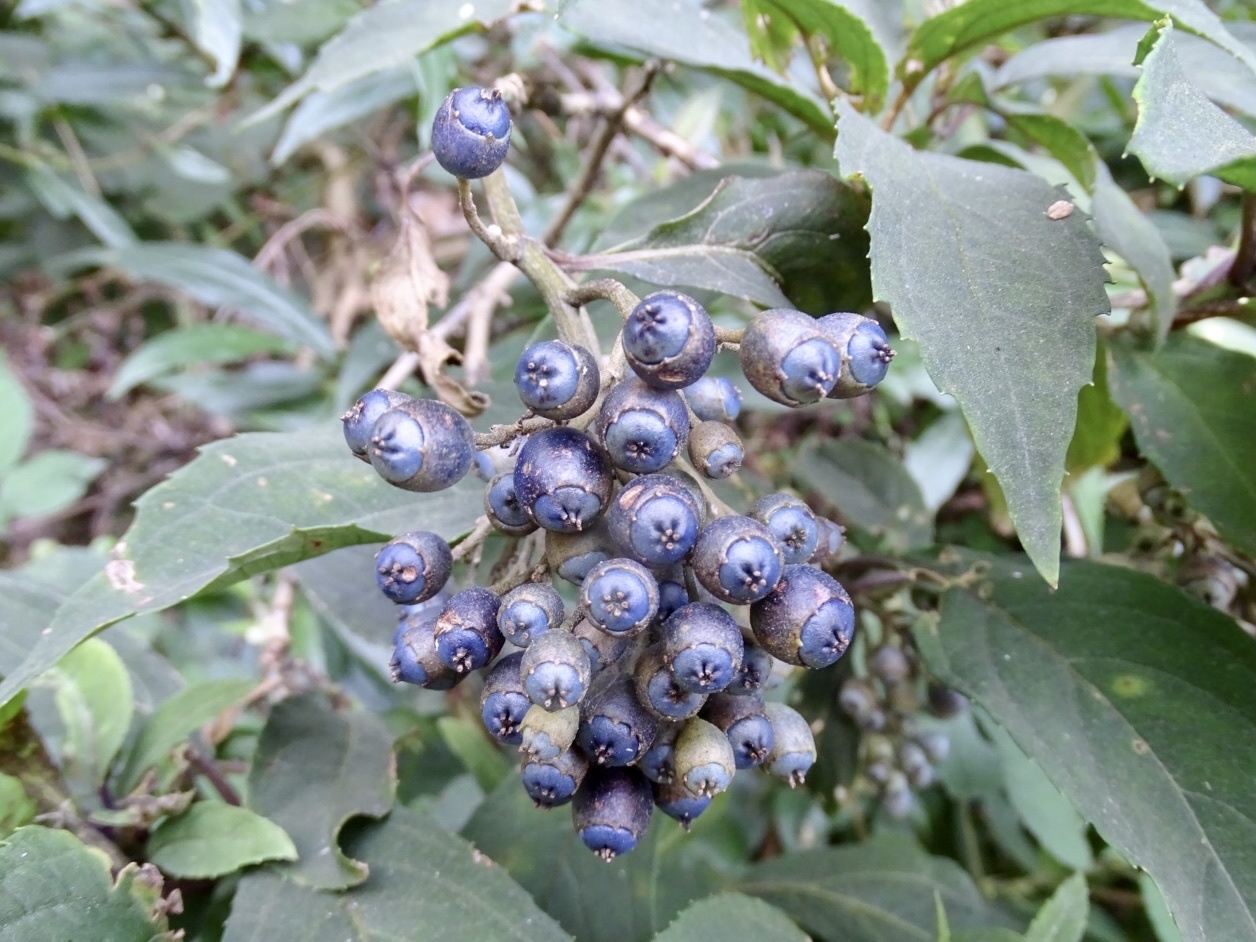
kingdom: Plantae
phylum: Tracheophyta
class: Magnoliopsida
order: Cornales
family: Hydrangeaceae
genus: Hydrangea
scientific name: Hydrangea febrifuga
